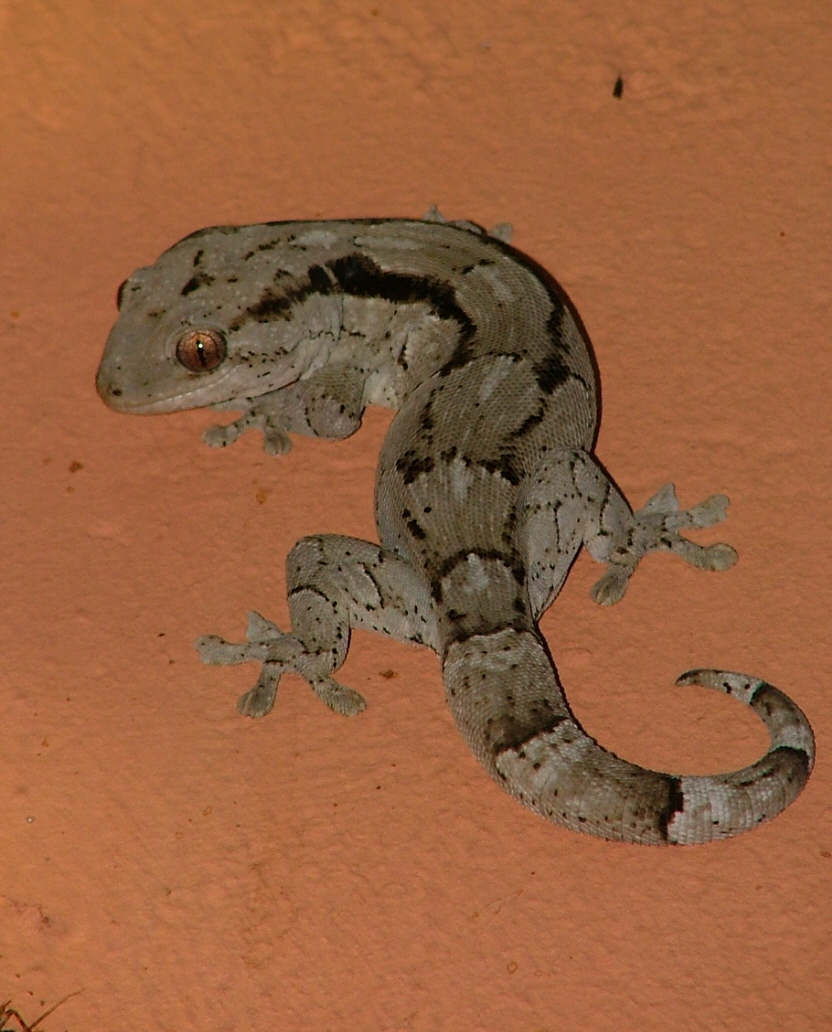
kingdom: Animalia
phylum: Chordata
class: Squamata
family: Gekkonidae
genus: Homopholis
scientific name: Homopholis arnoldi
